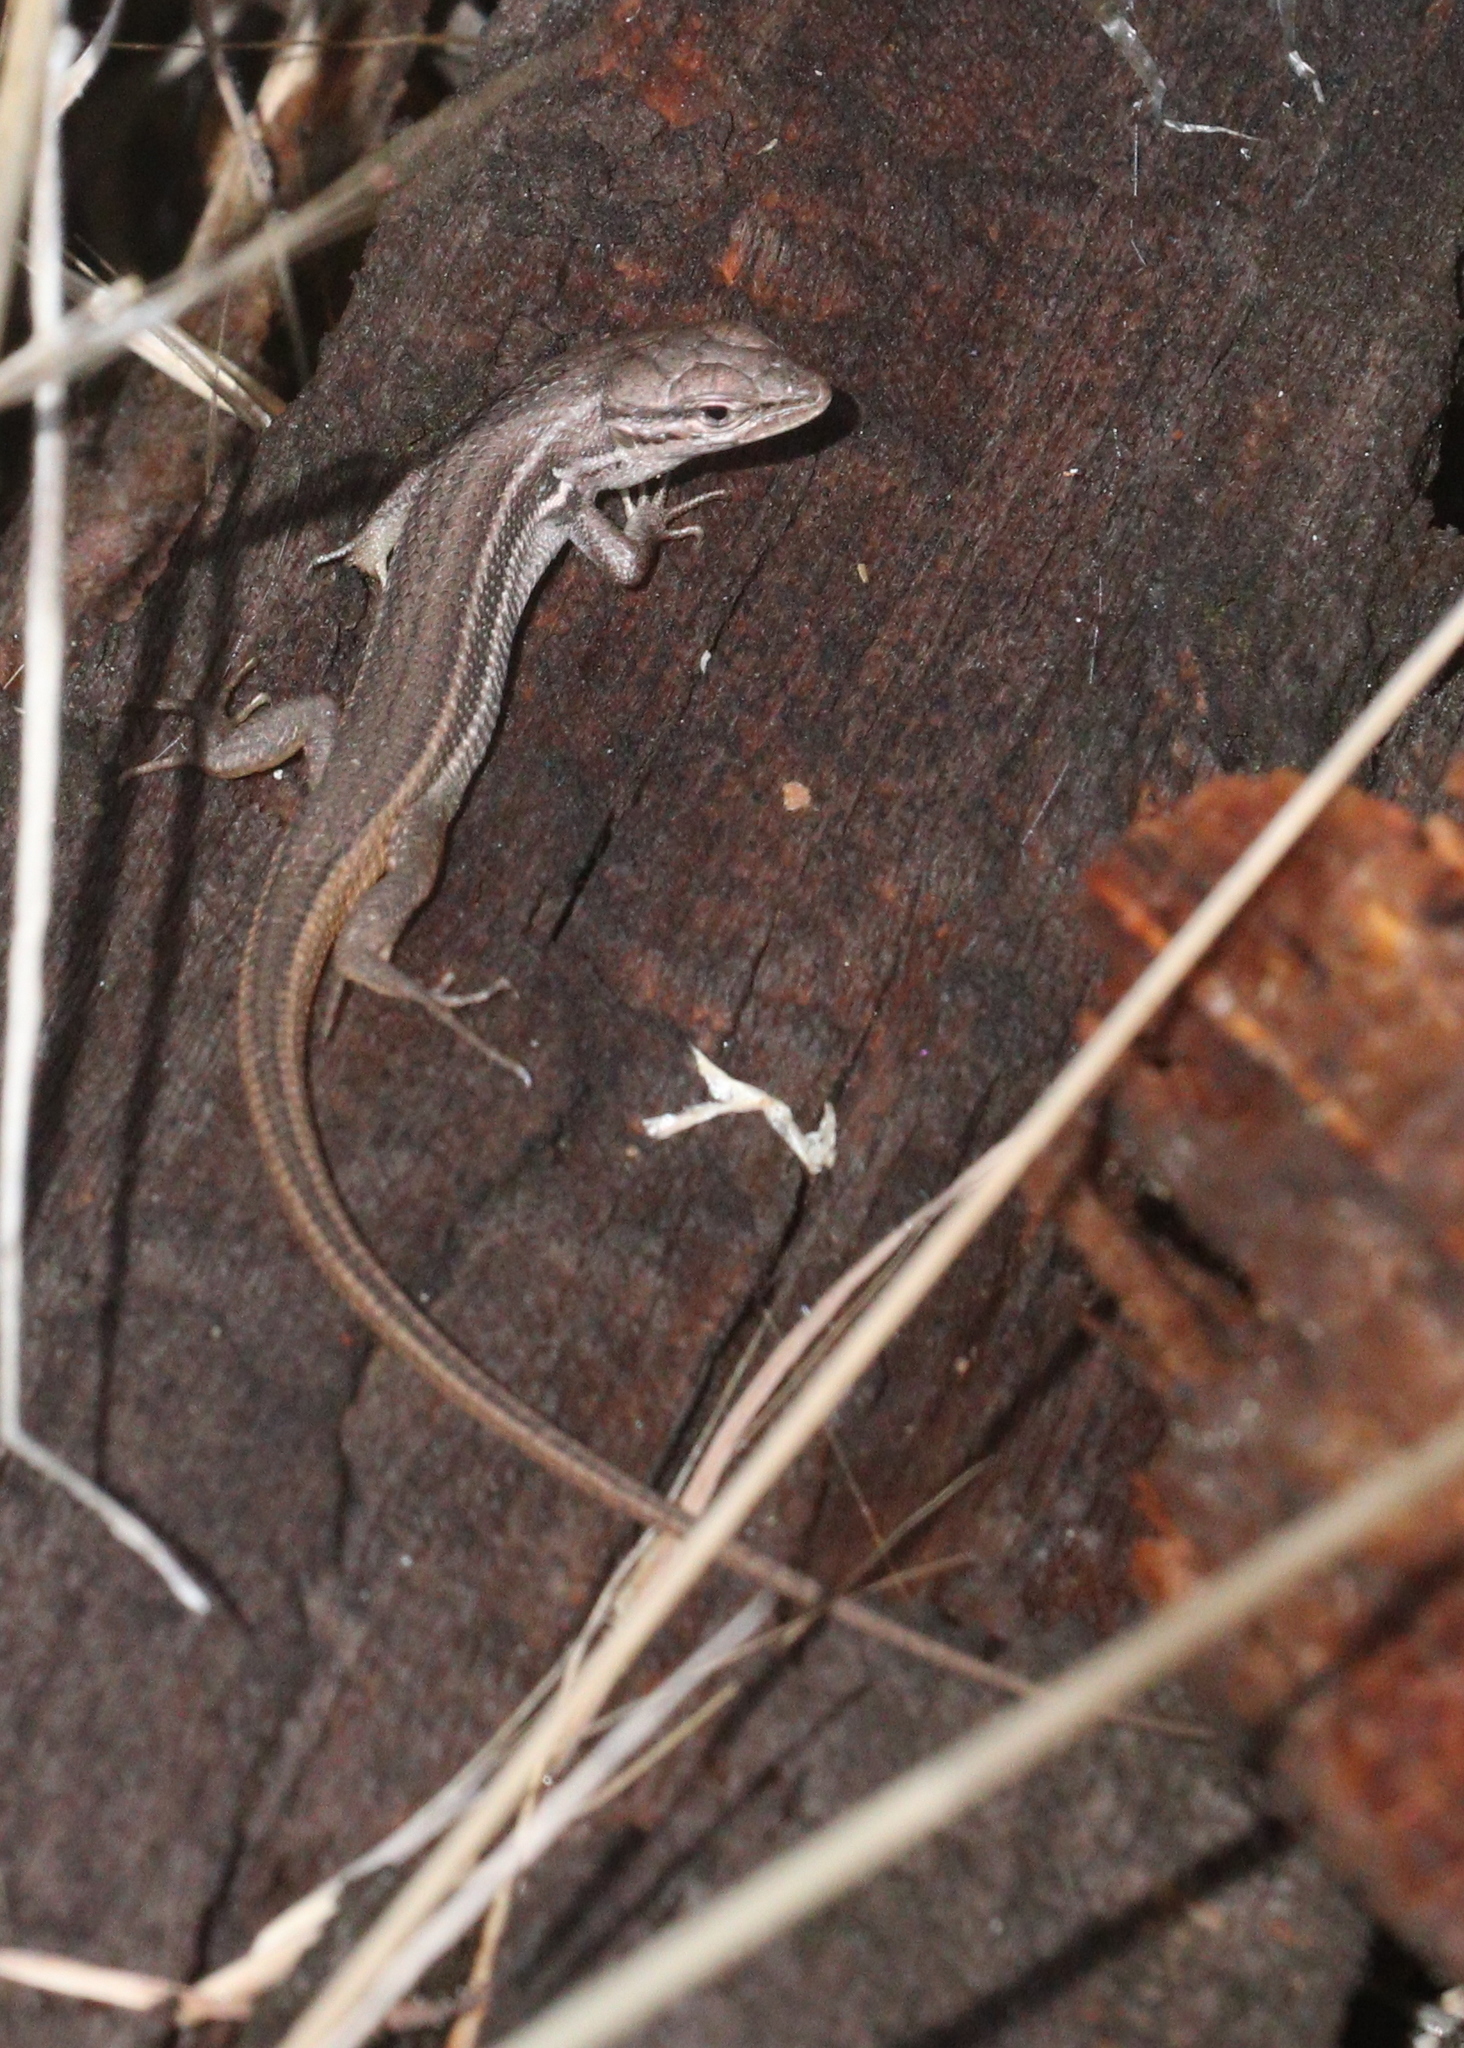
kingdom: Animalia
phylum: Chordata
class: Squamata
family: Lacertidae
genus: Psammodromus
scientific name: Psammodromus algirus
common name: Algerian psammodromus
